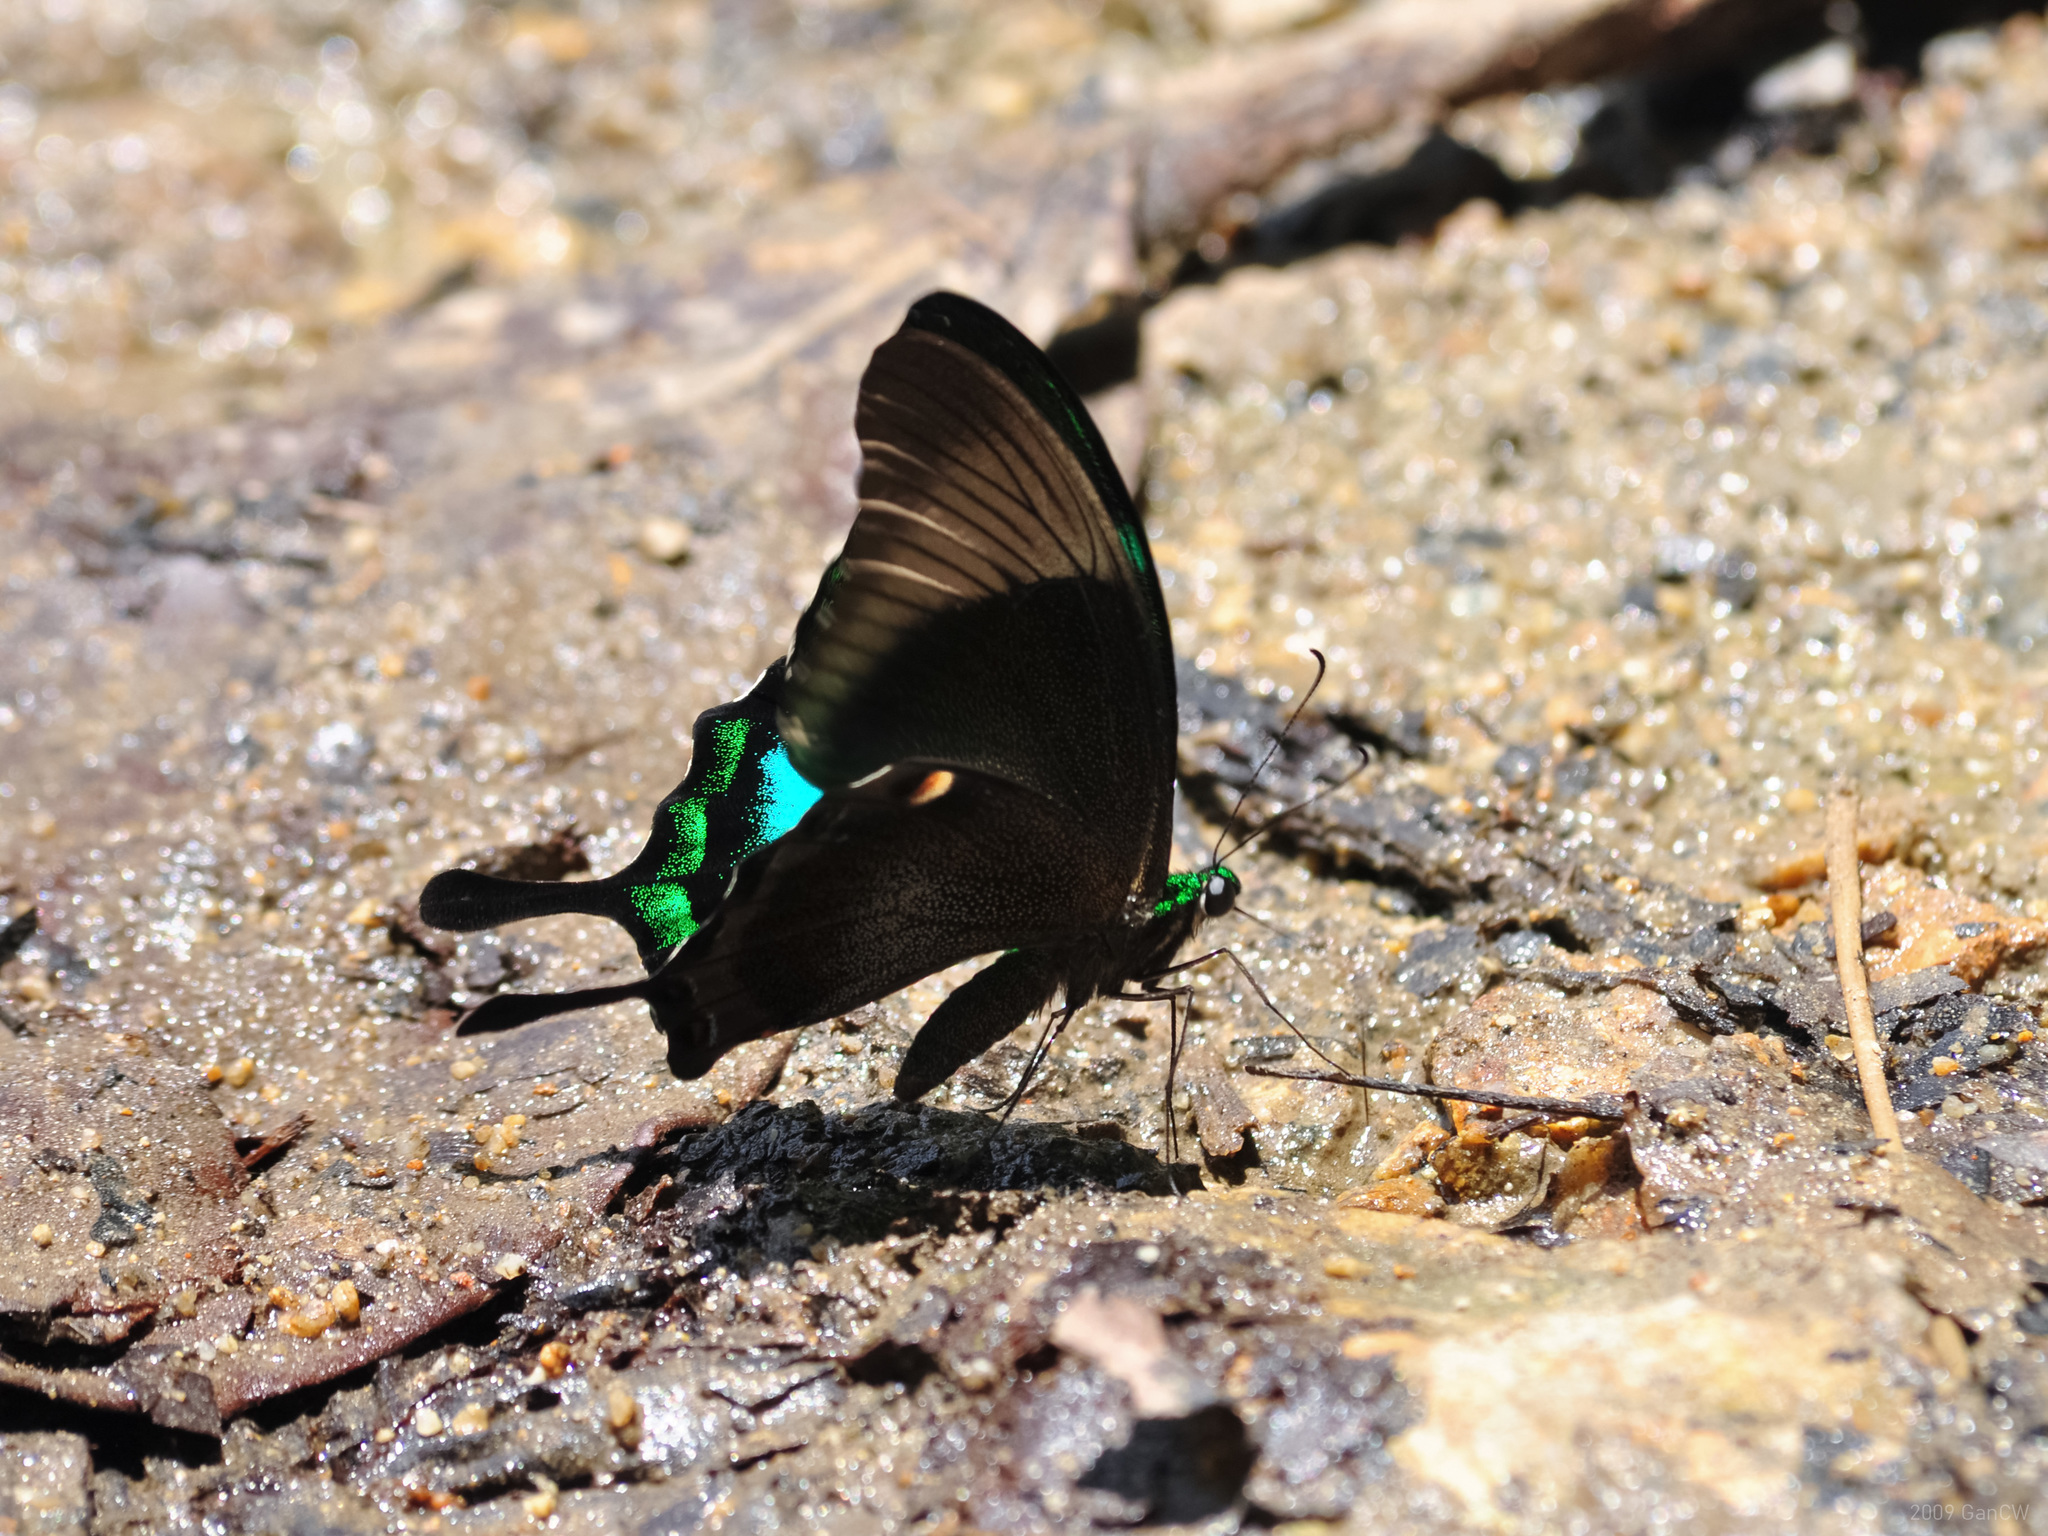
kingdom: Animalia
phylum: Arthropoda
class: Insecta
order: Lepidoptera
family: Papilionidae
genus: Papilio
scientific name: Papilio palinurus
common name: Banded peacock
